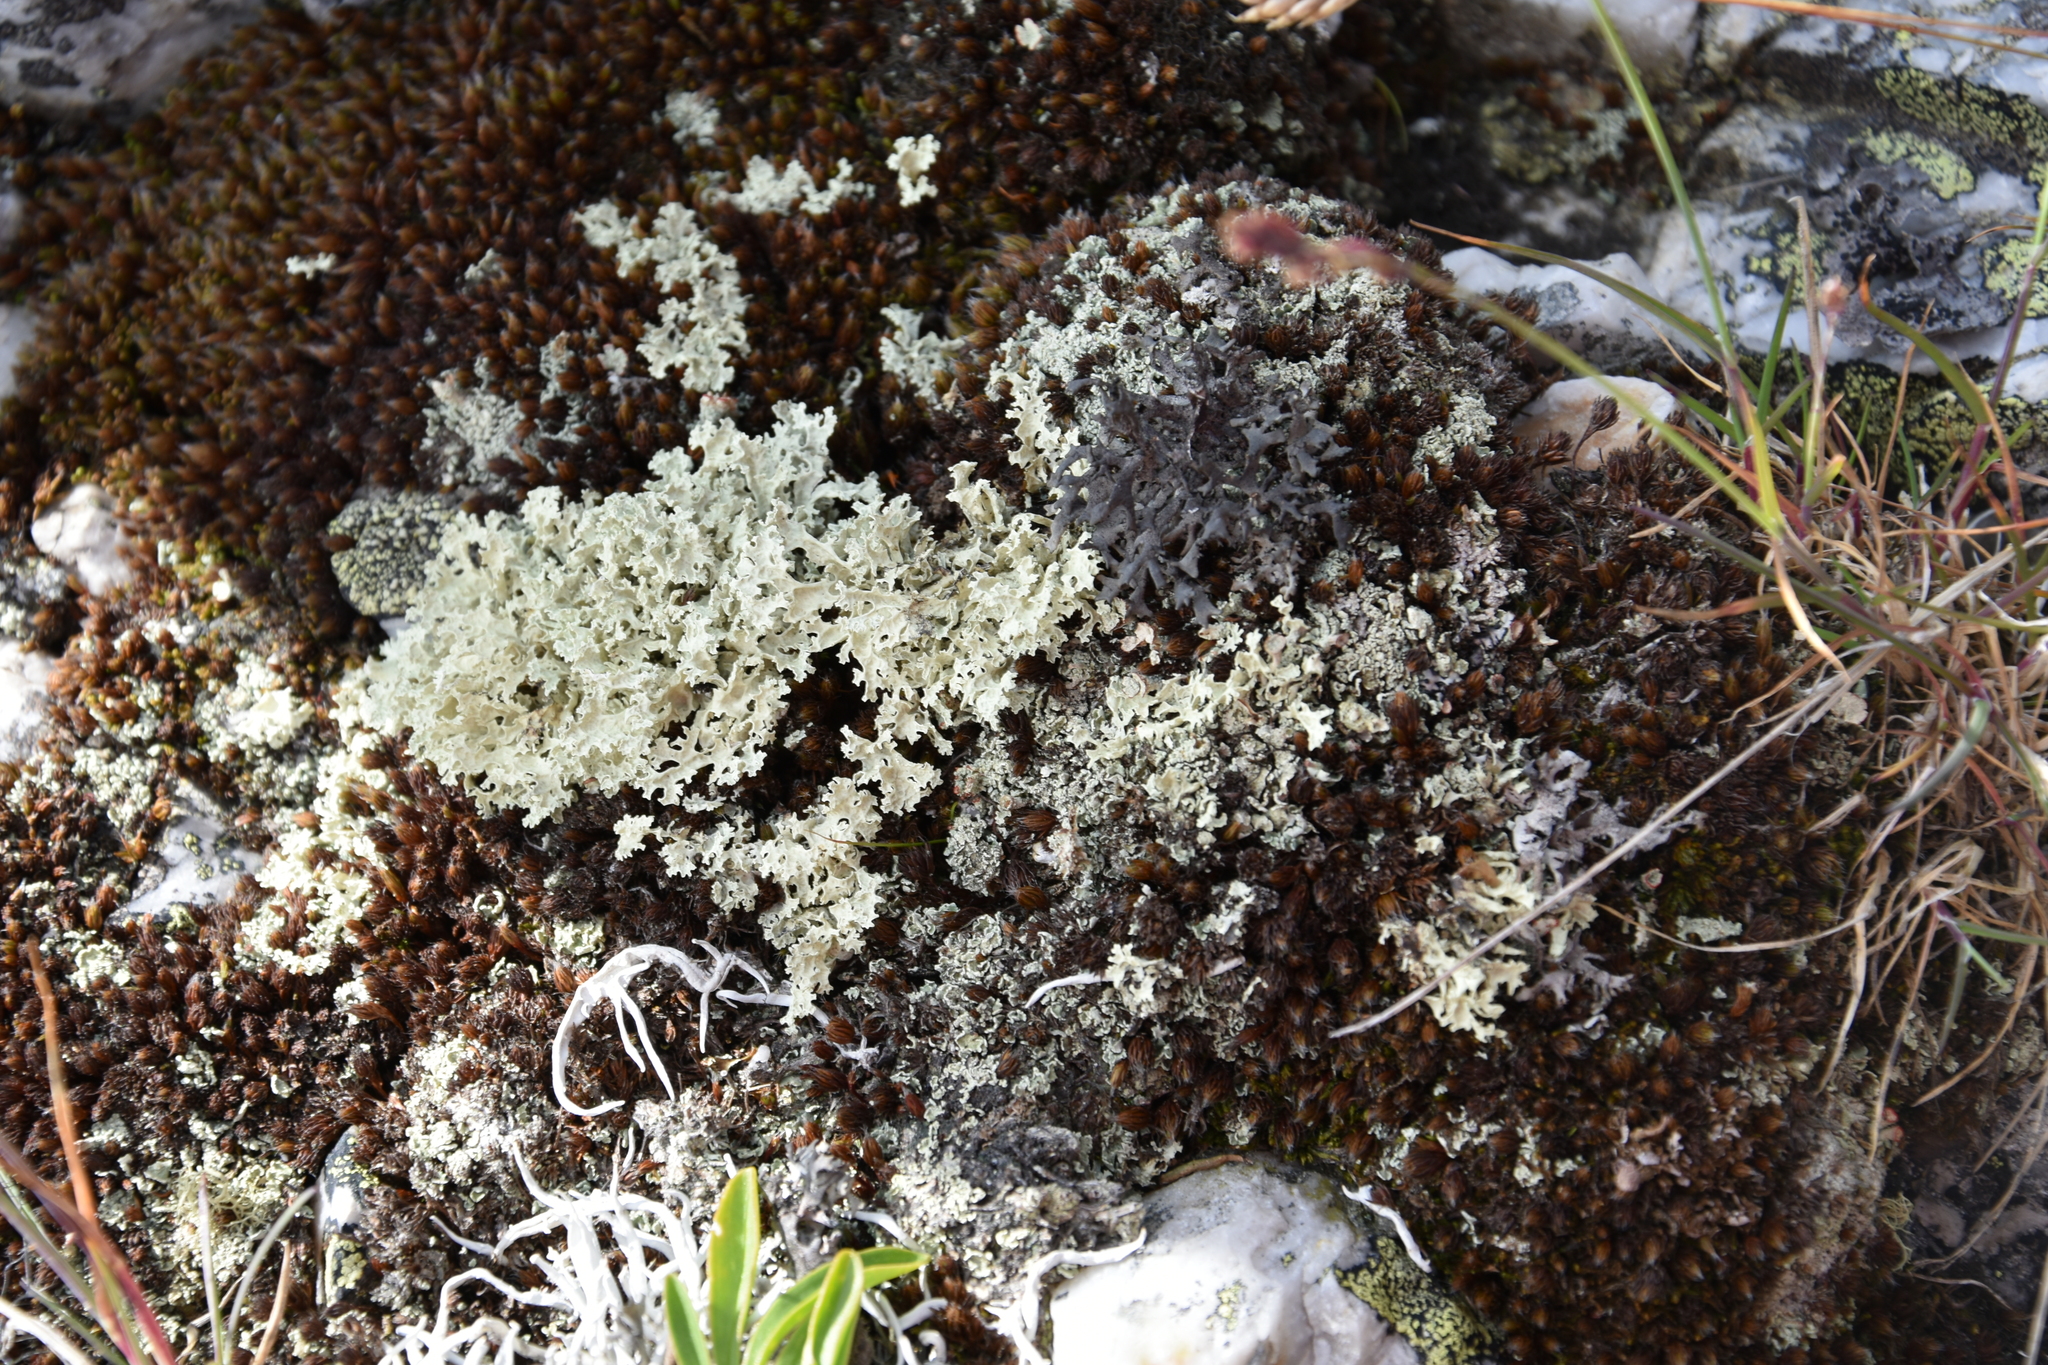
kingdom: Fungi
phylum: Ascomycota
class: Lecanoromycetes
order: Lecanorales
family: Parmeliaceae
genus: Nephromopsis
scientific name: Nephromopsis nivalis
